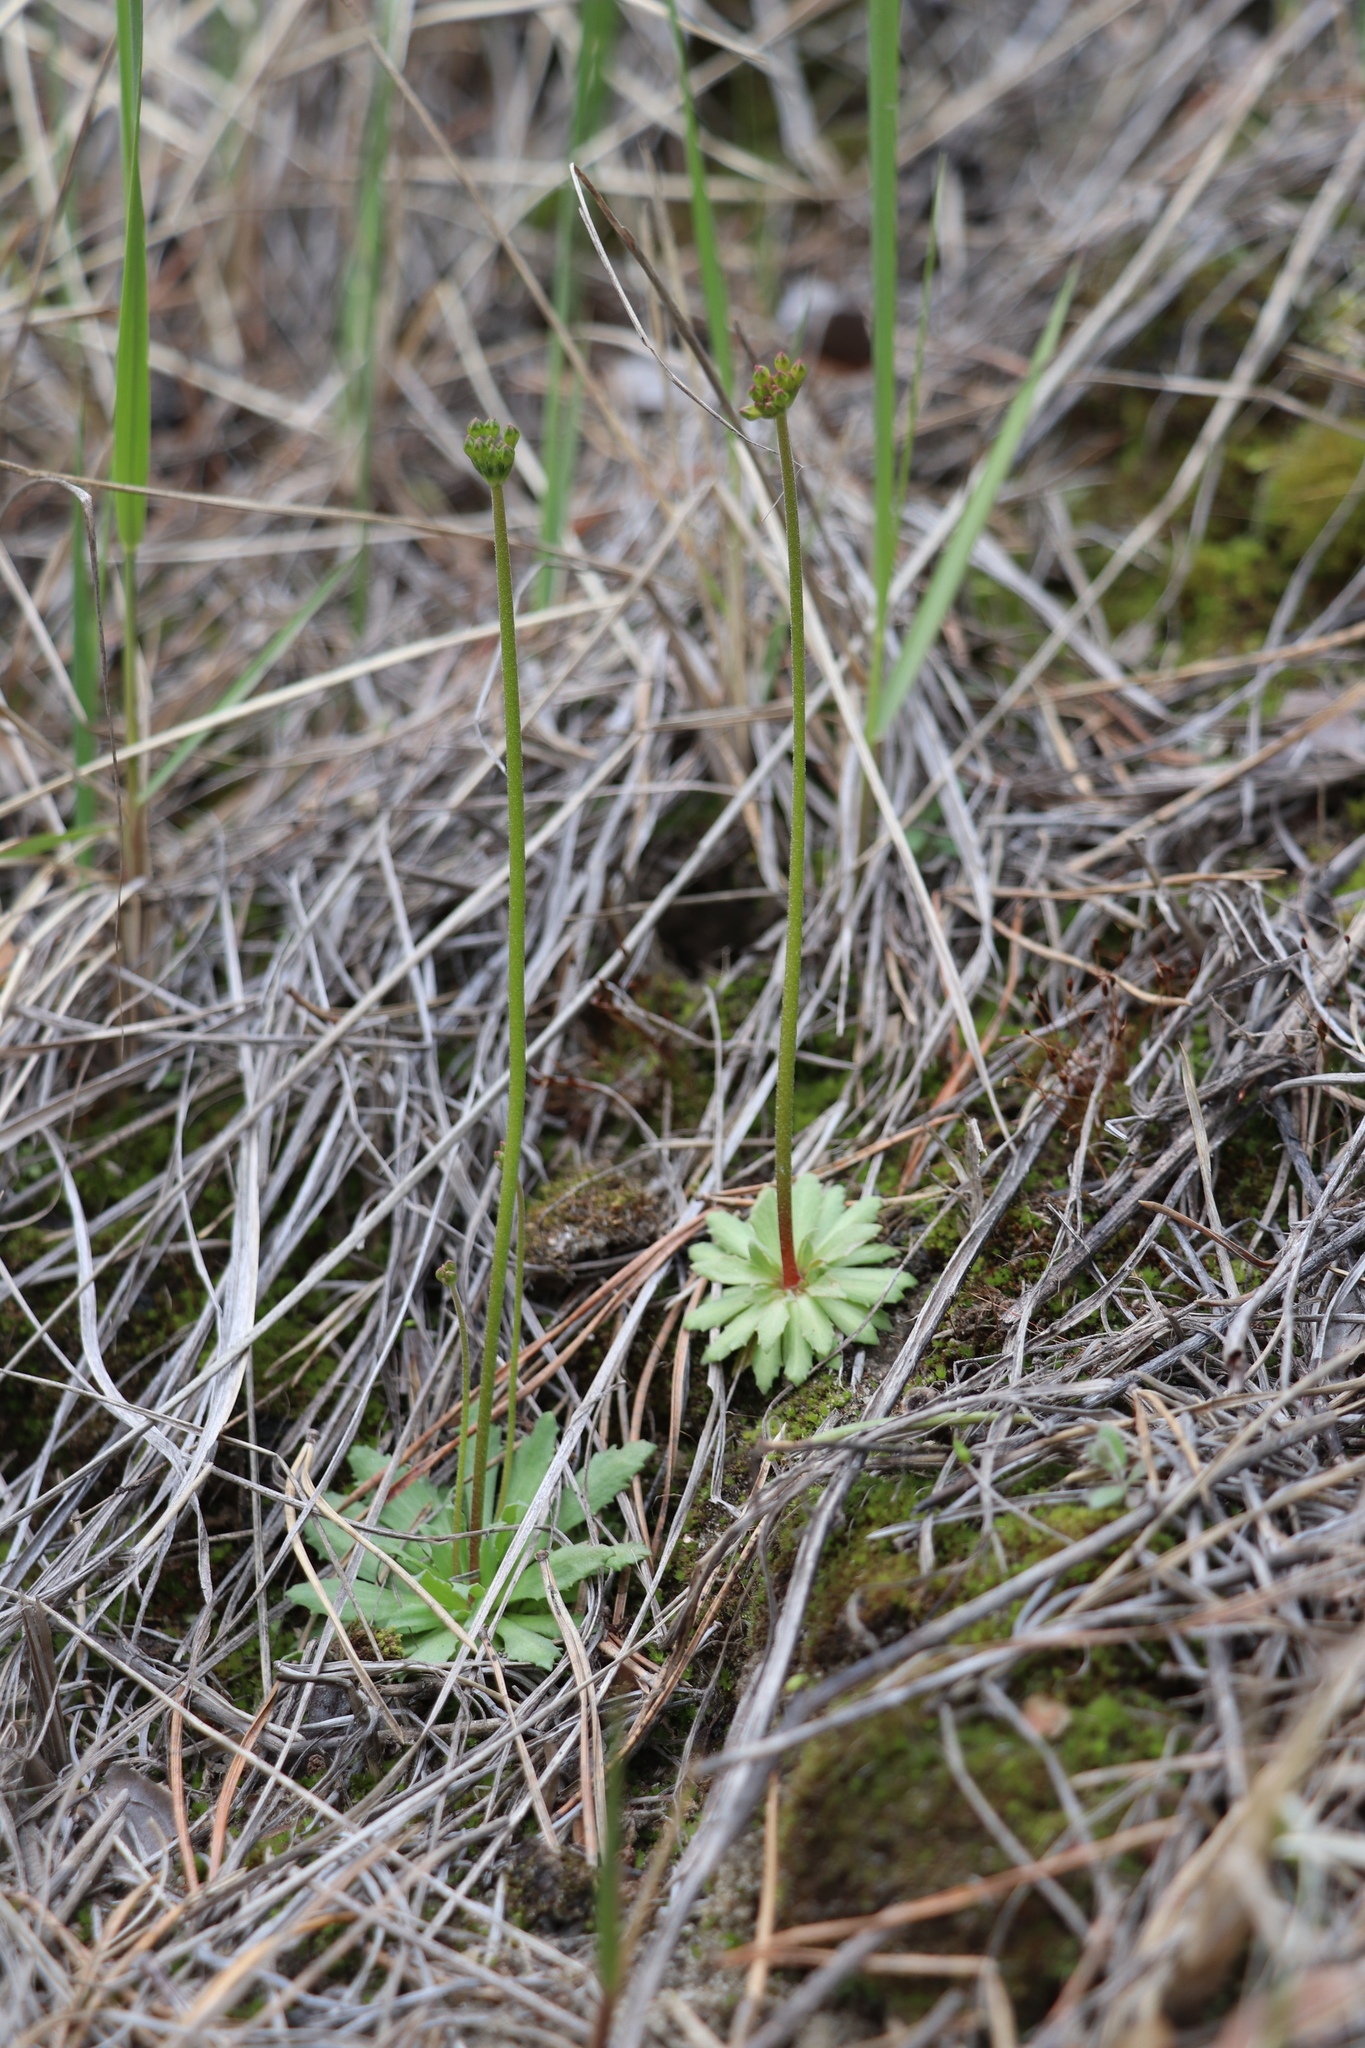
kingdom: Plantae
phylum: Tracheophyta
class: Magnoliopsida
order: Ericales
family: Primulaceae
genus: Androsace
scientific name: Androsace septentrionalis
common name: Hairy northern fairy-candelabra
